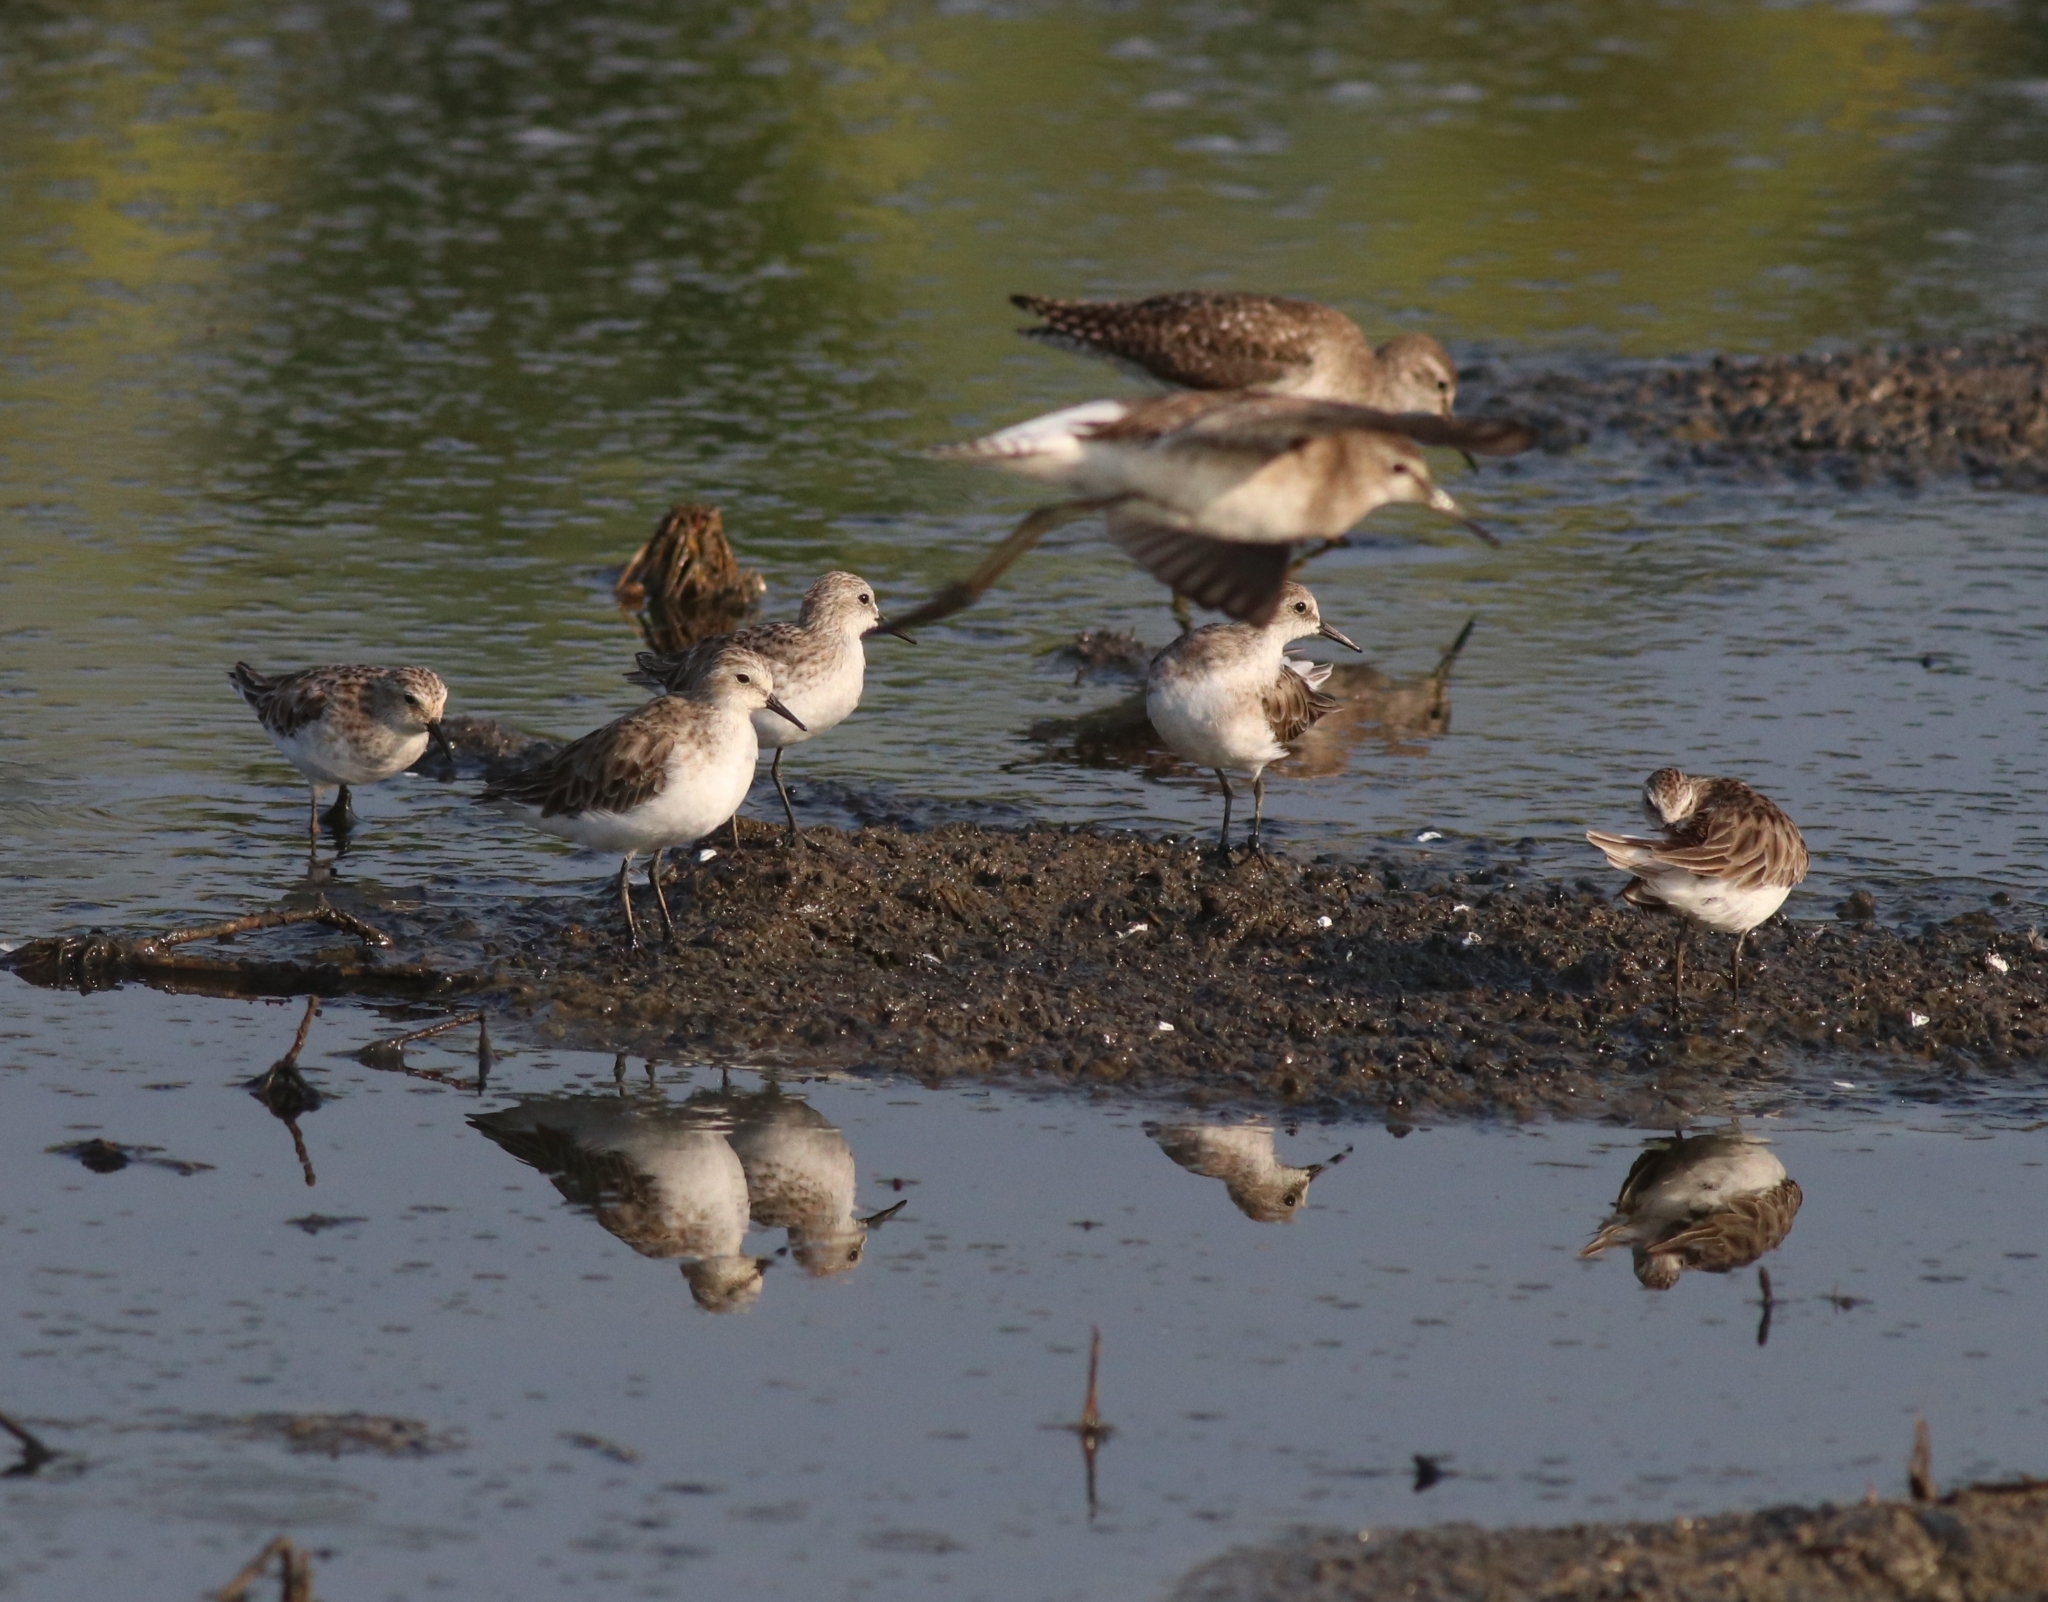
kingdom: Animalia
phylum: Chordata
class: Aves
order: Charadriiformes
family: Scolopacidae
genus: Tringa
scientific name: Tringa glareola
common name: Wood sandpiper
